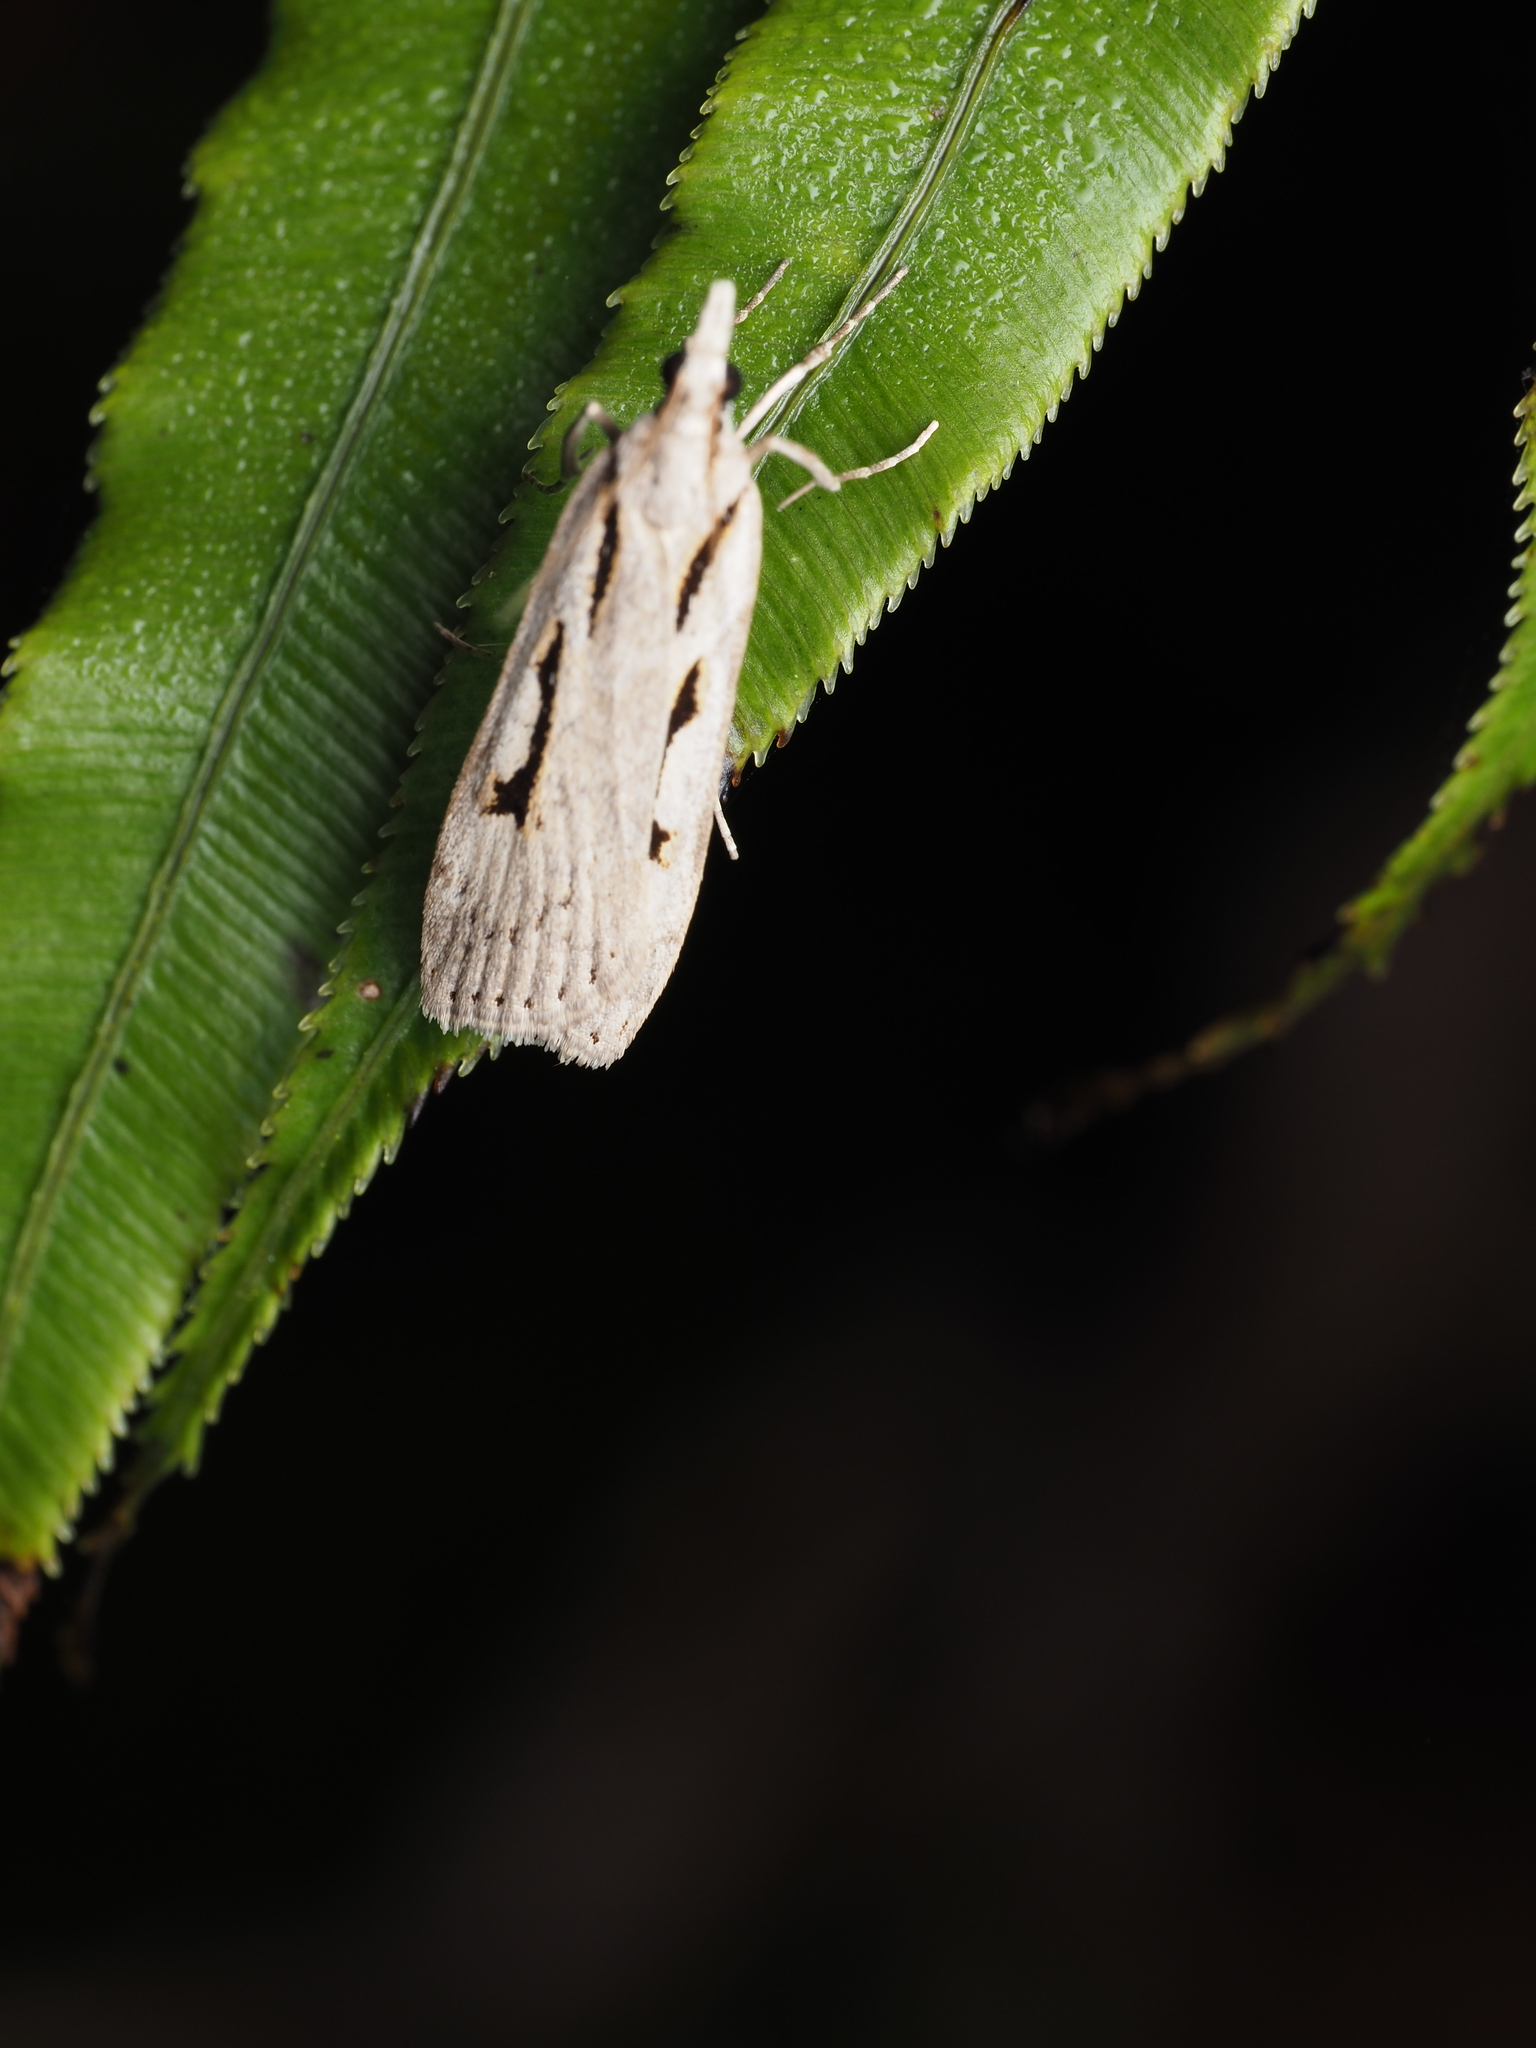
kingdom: Animalia
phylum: Arthropoda
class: Insecta
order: Lepidoptera
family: Crambidae
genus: Scoparia
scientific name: Scoparia rotuellus
